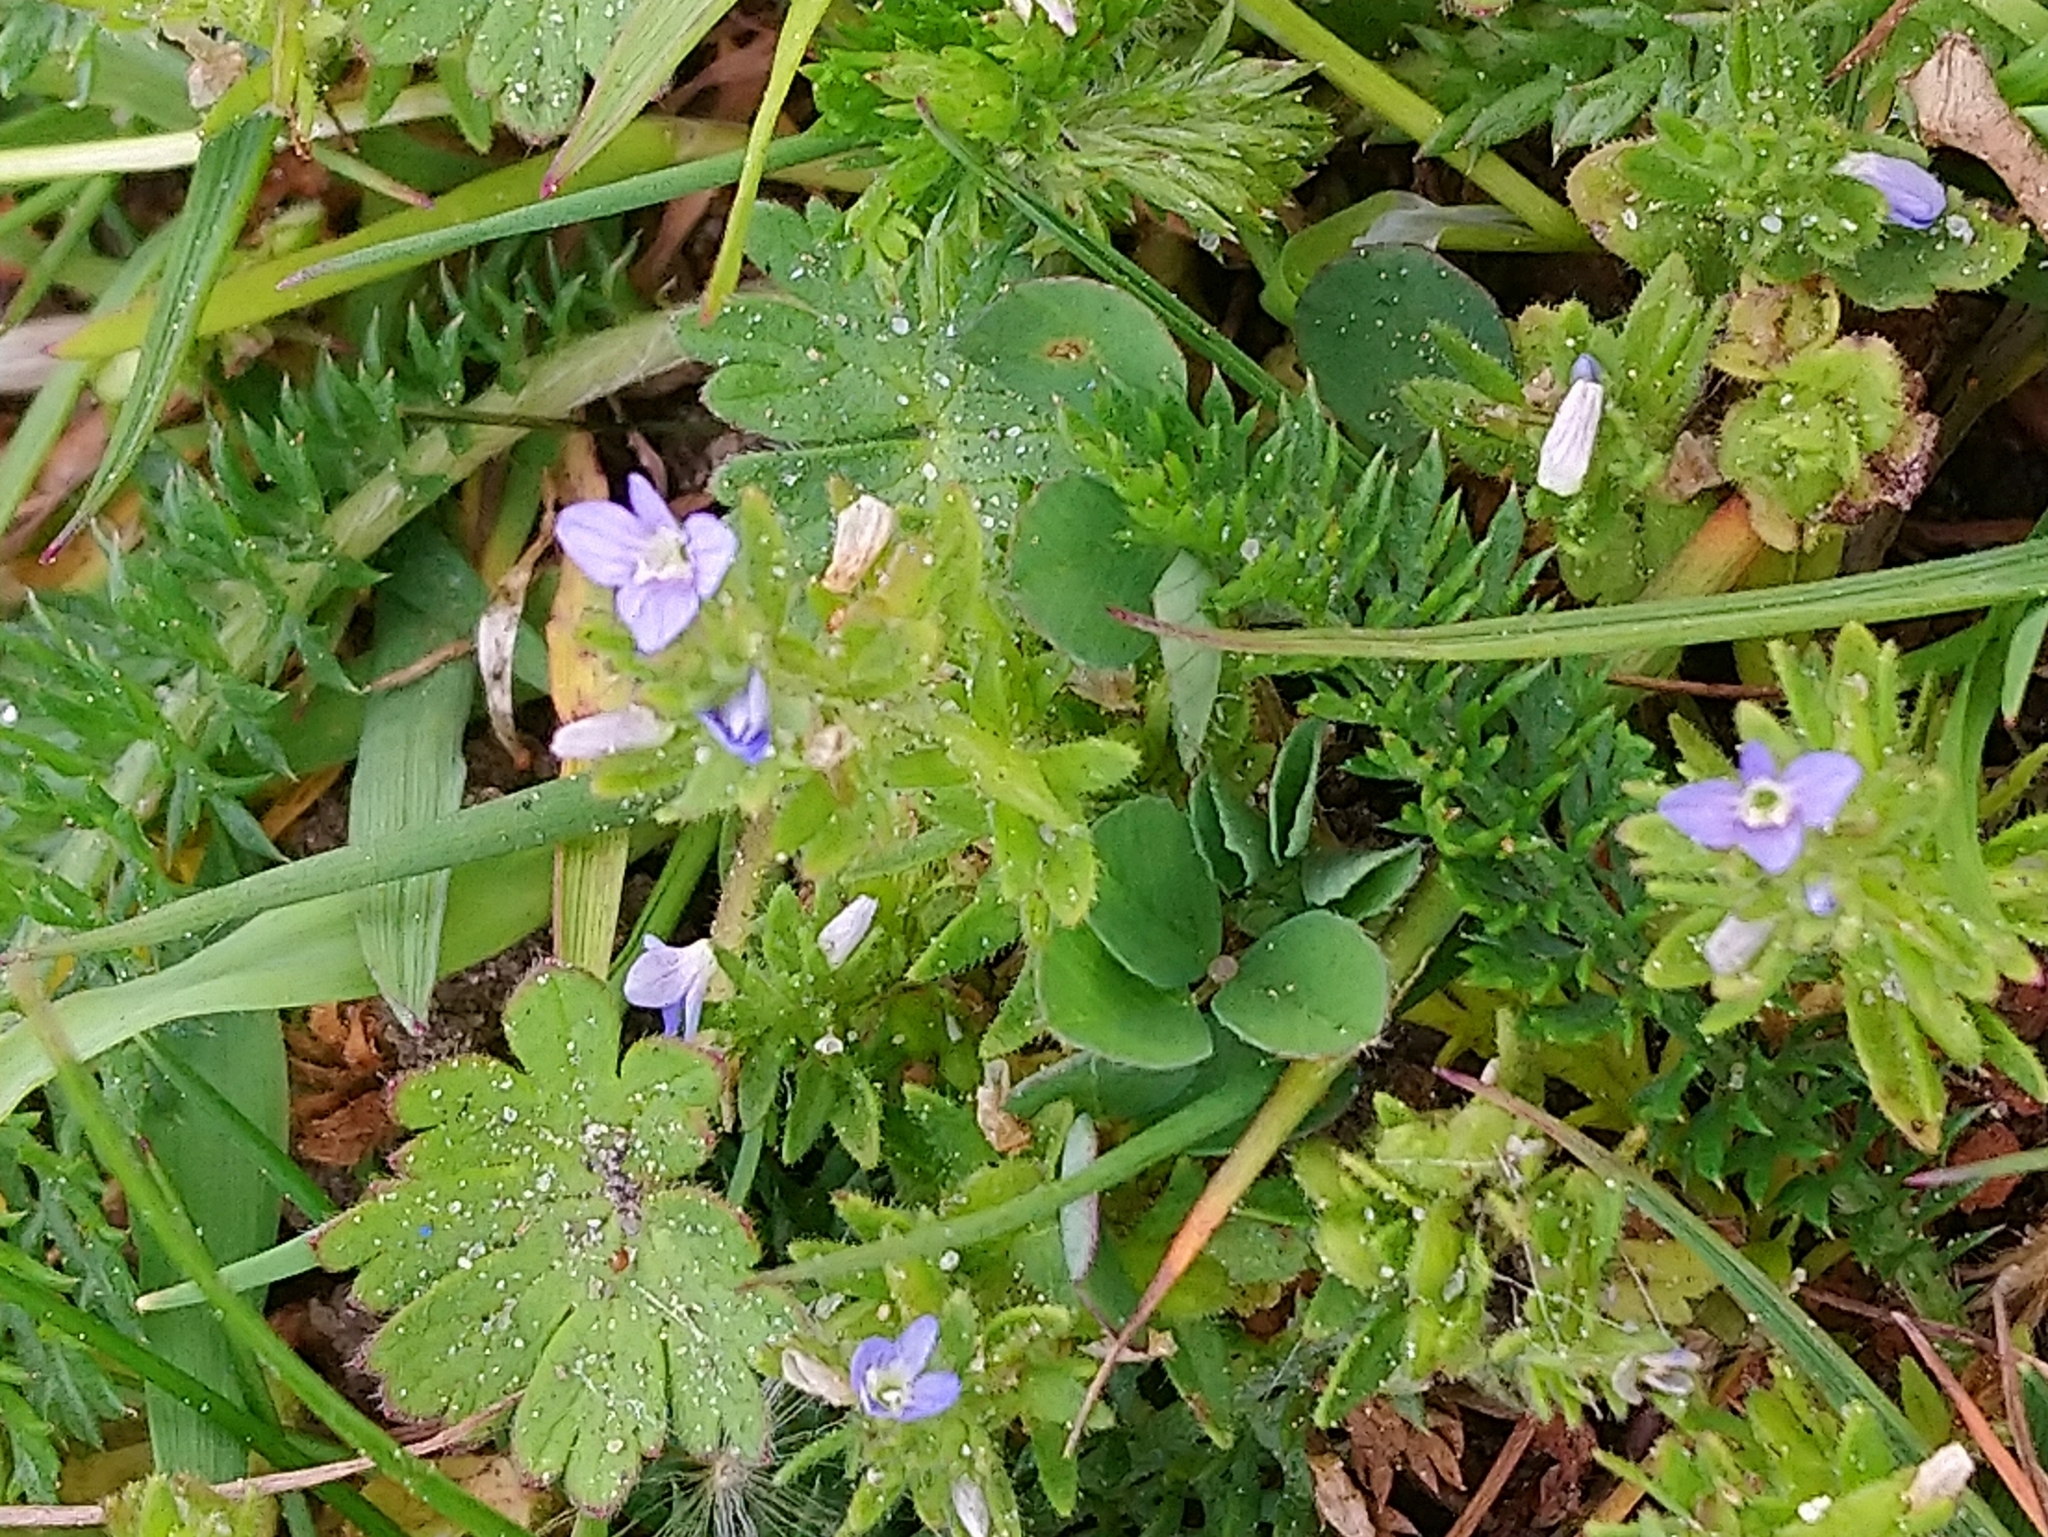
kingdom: Plantae
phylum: Tracheophyta
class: Magnoliopsida
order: Lamiales
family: Plantaginaceae
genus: Veronica
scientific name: Veronica arvensis
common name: Corn speedwell
